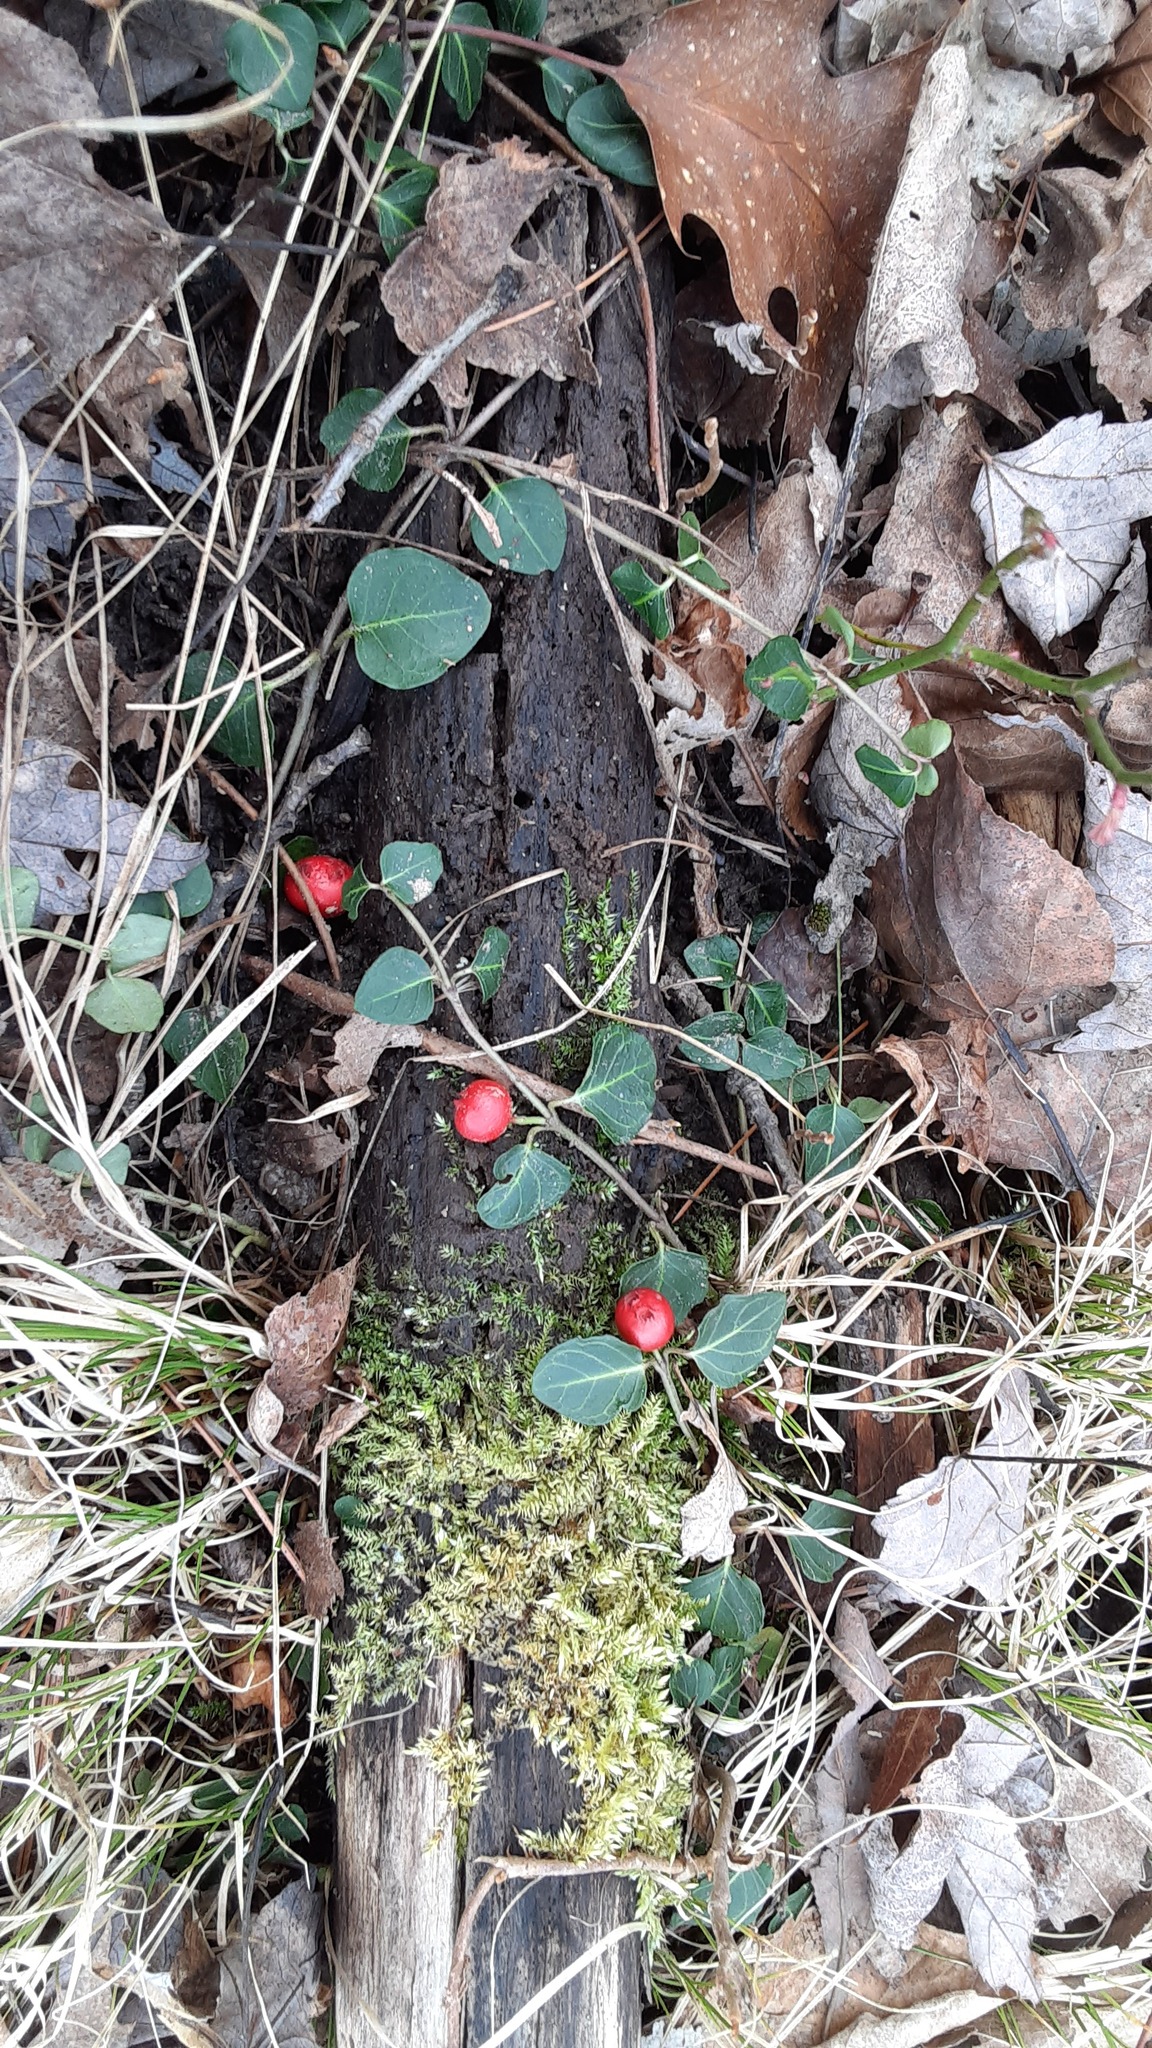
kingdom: Plantae
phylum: Tracheophyta
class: Magnoliopsida
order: Gentianales
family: Rubiaceae
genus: Mitchella
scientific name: Mitchella repens
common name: Partridge-berry
